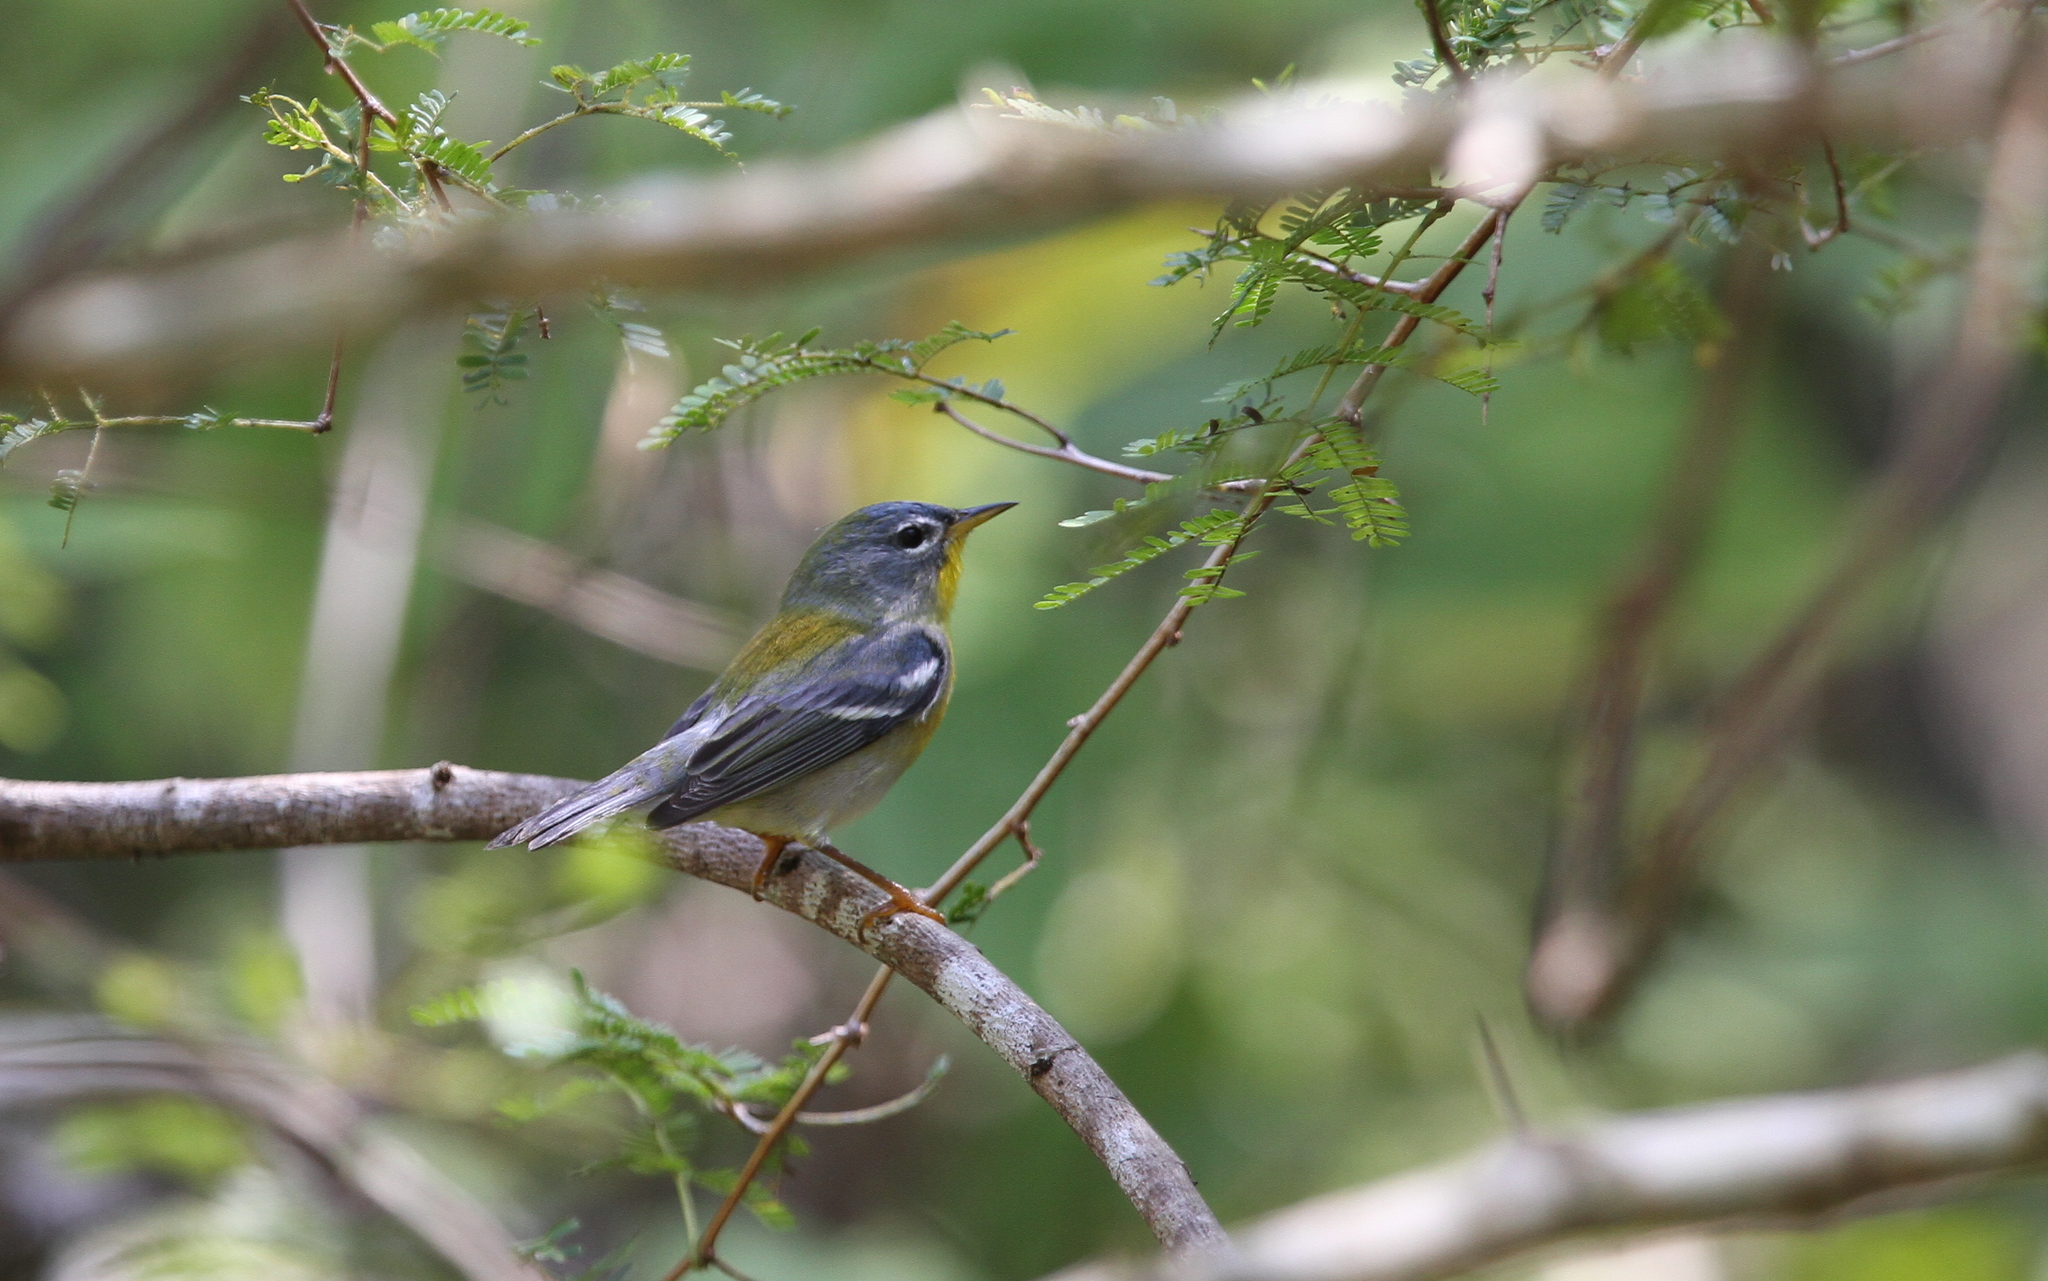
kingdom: Animalia
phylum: Chordata
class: Aves
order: Passeriformes
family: Parulidae
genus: Setophaga
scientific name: Setophaga americana
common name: Northern parula
